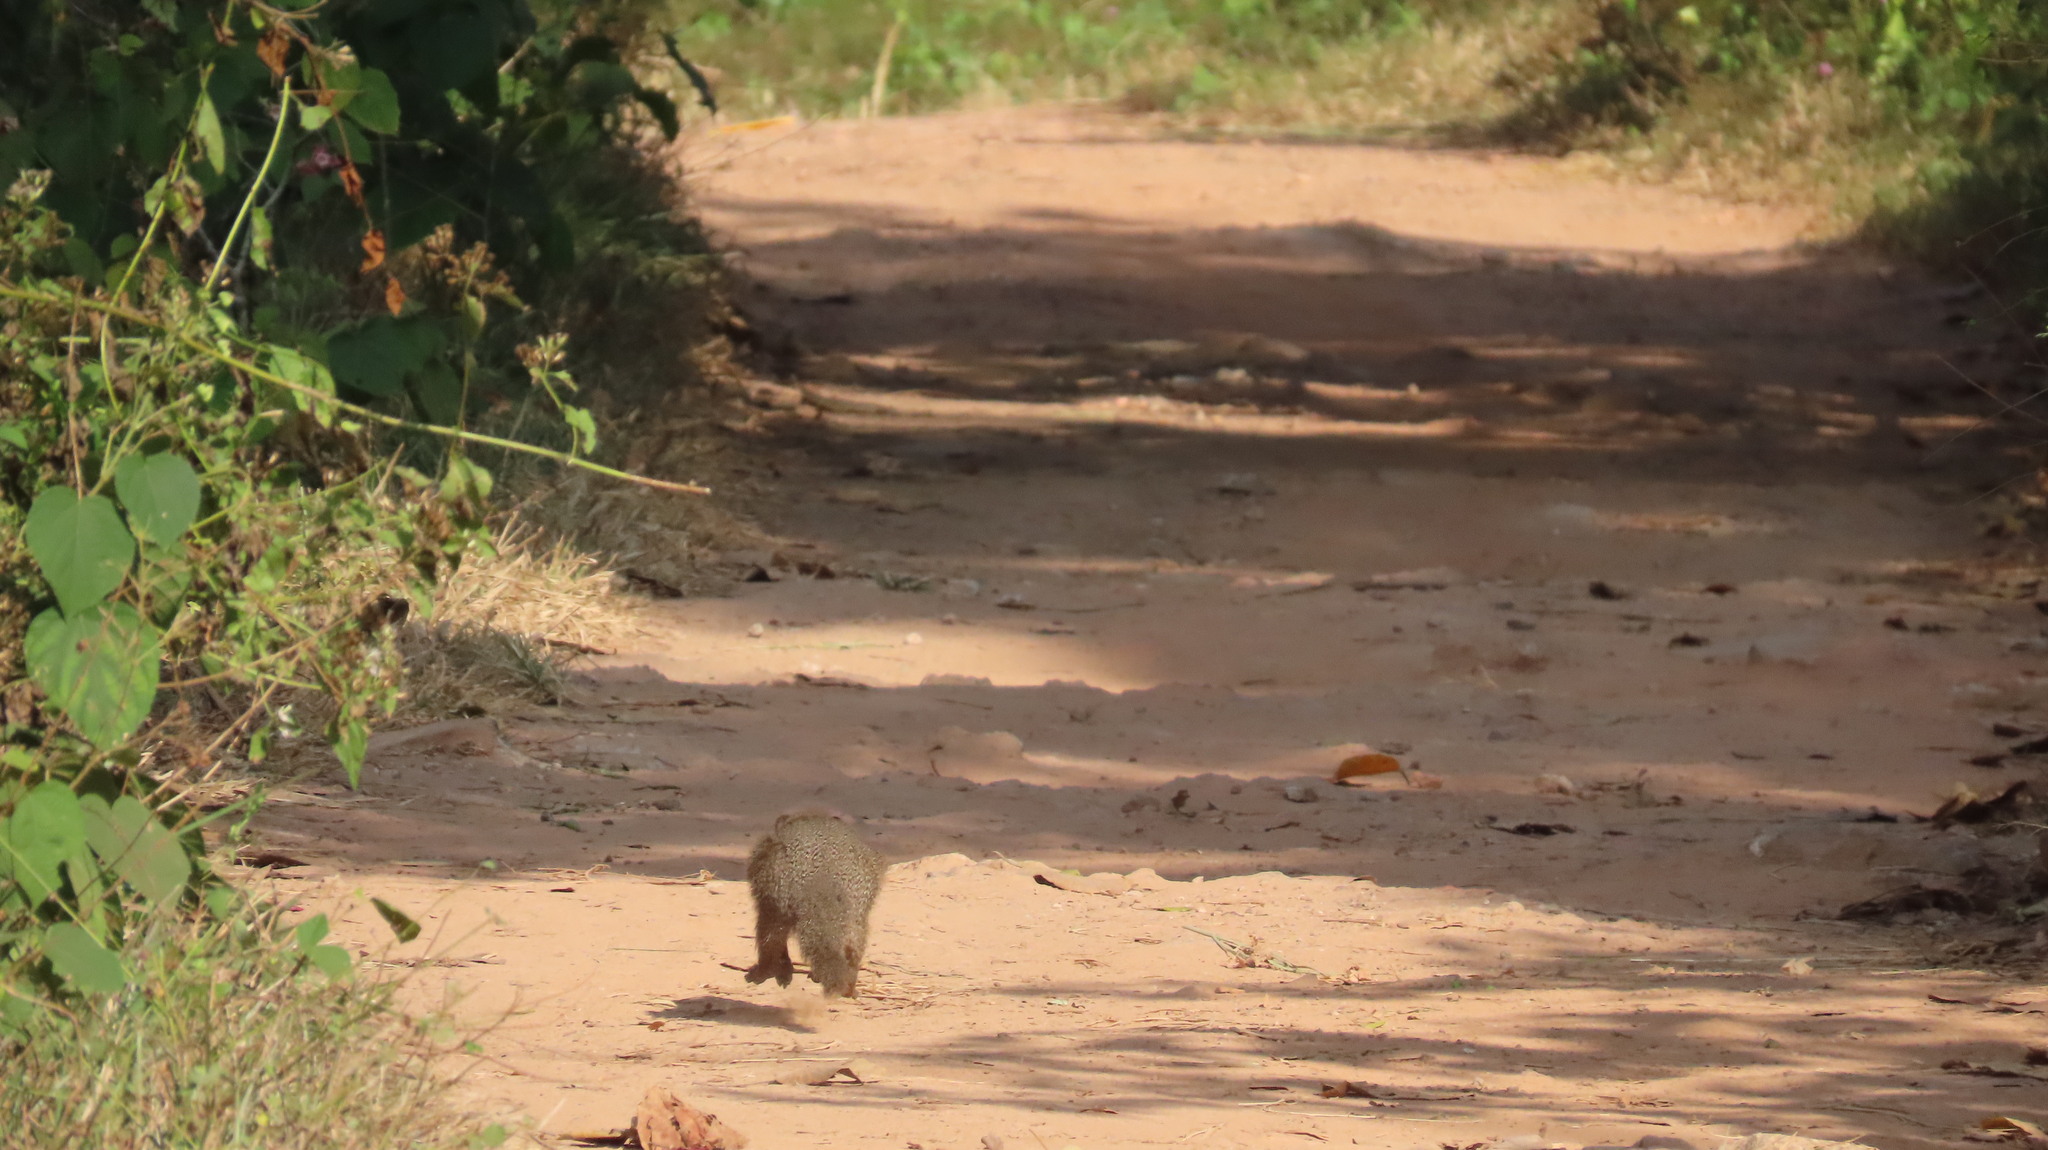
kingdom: Animalia
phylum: Chordata
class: Mammalia
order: Carnivora
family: Herpestidae
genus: Herpestes
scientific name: Herpestes edwardsi
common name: Indian gray mongoose
